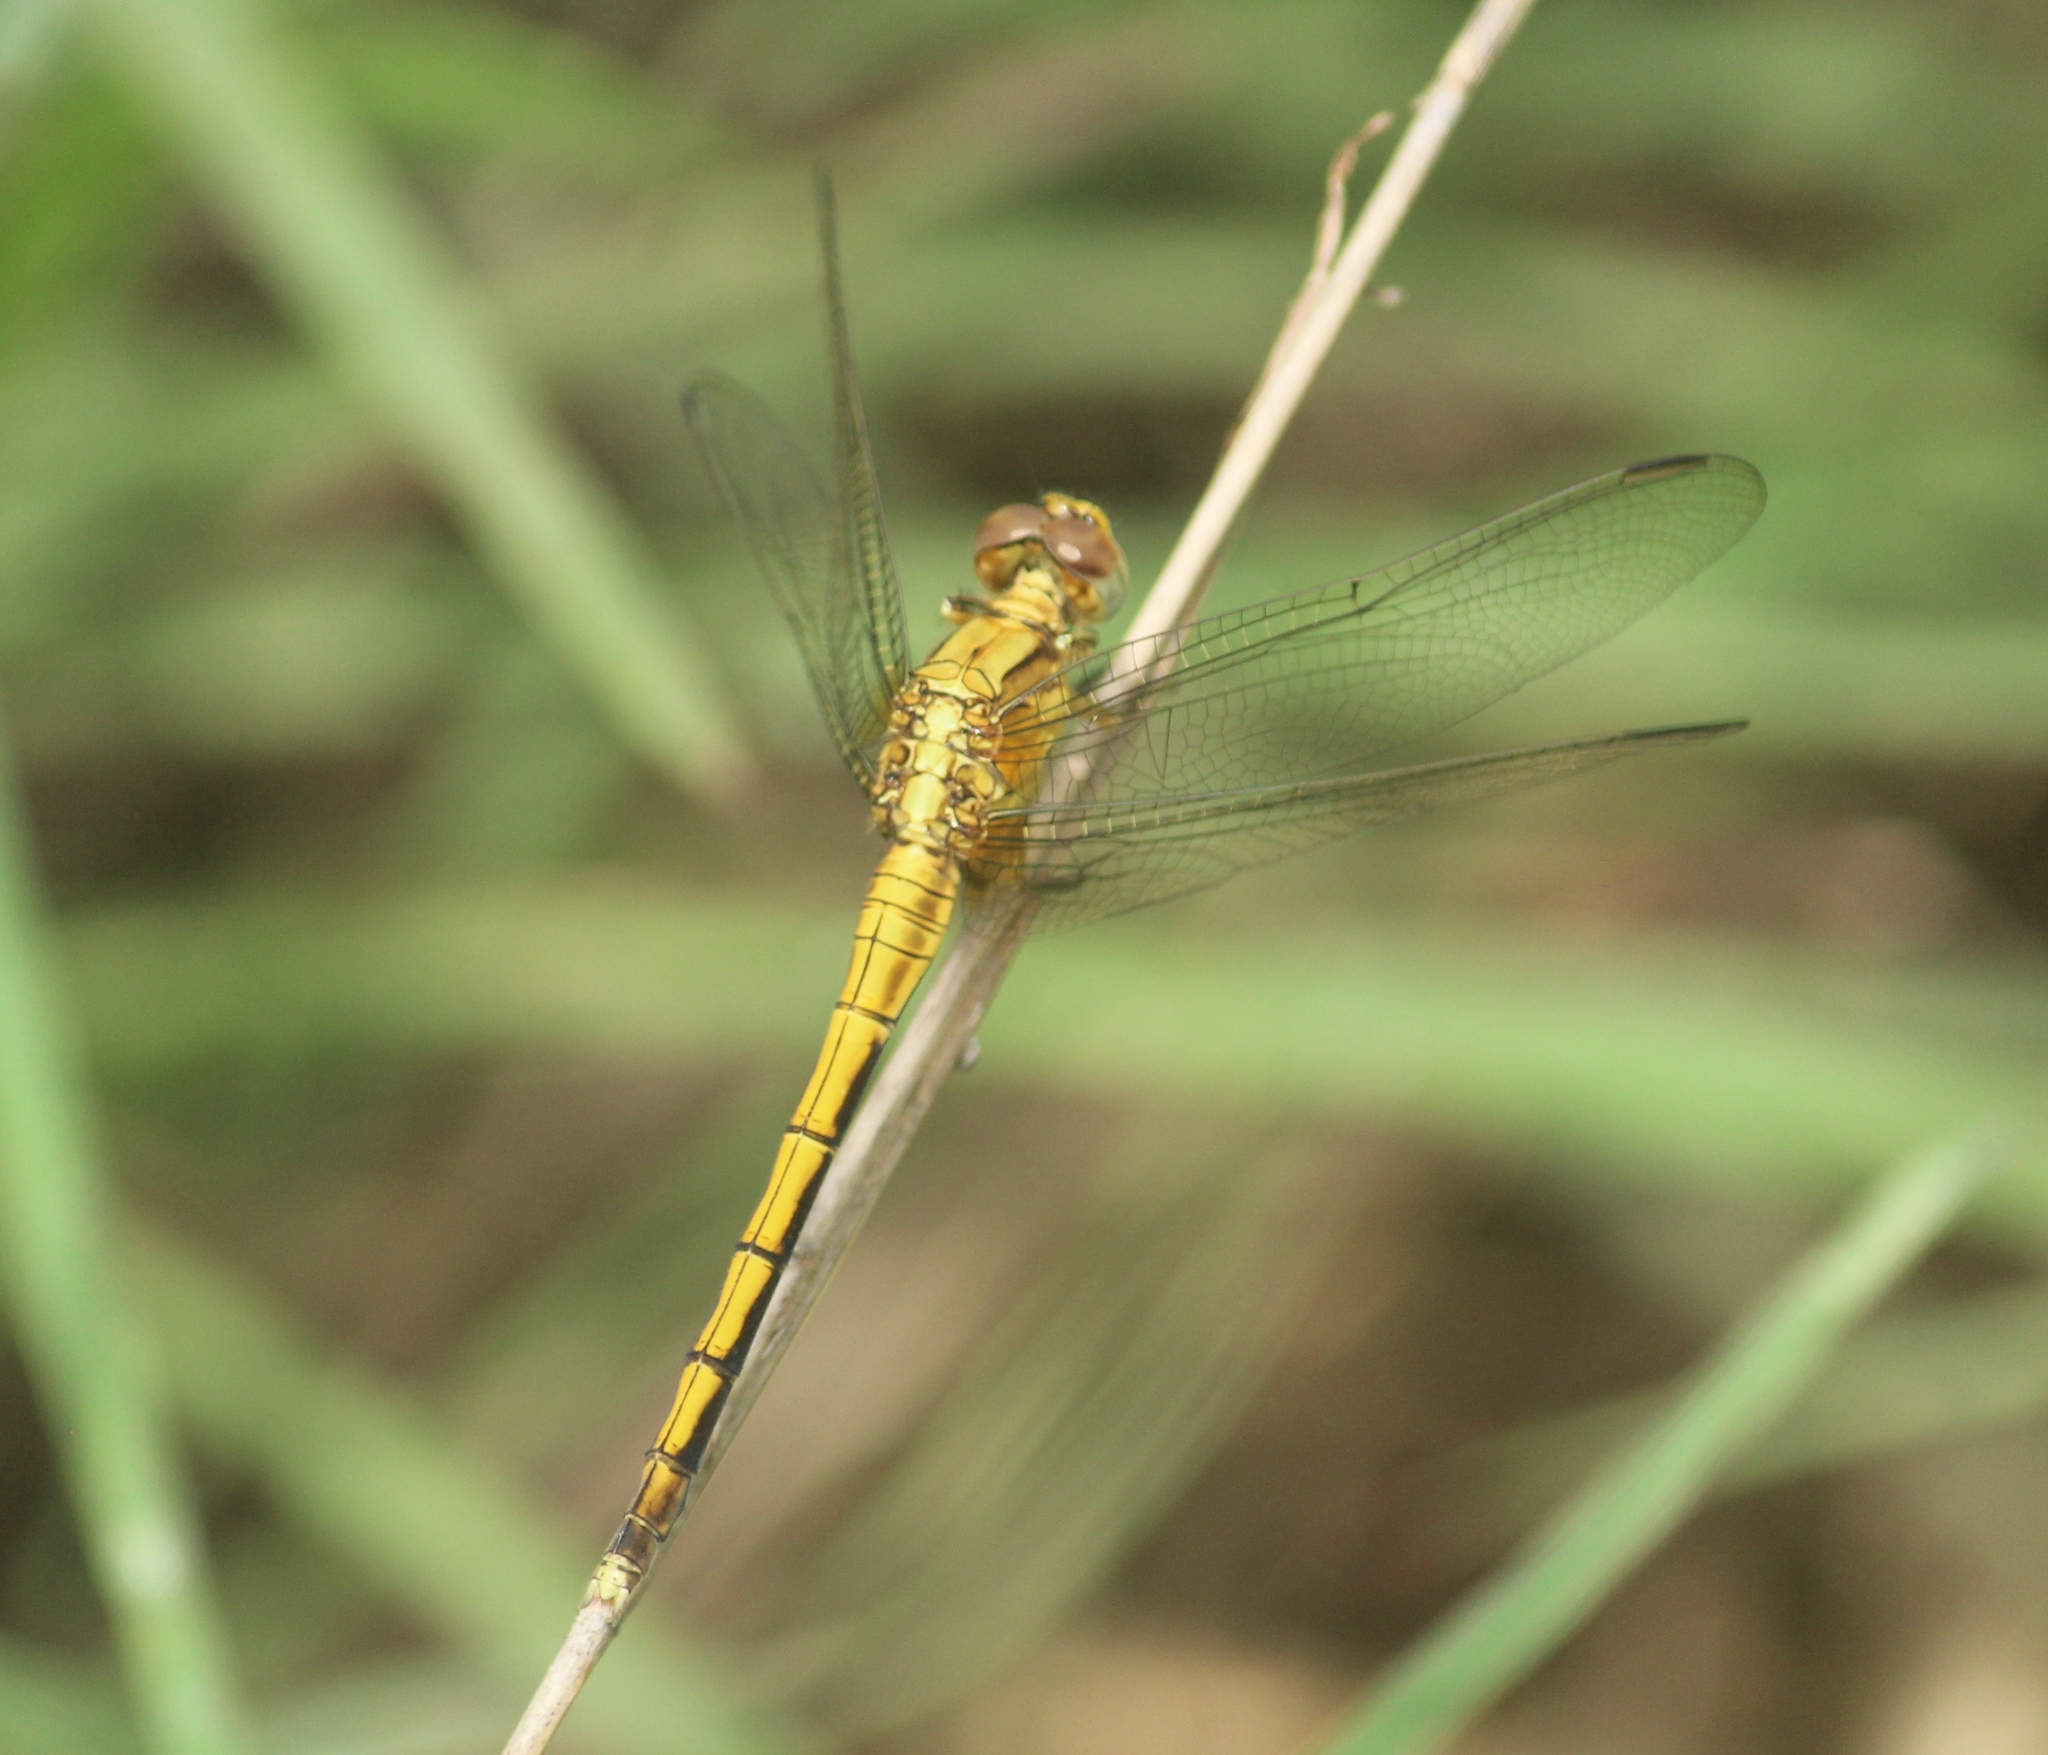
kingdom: Animalia
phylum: Arthropoda
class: Insecta
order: Odonata
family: Libellulidae
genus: Orthetrum
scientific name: Orthetrum luzonicum
